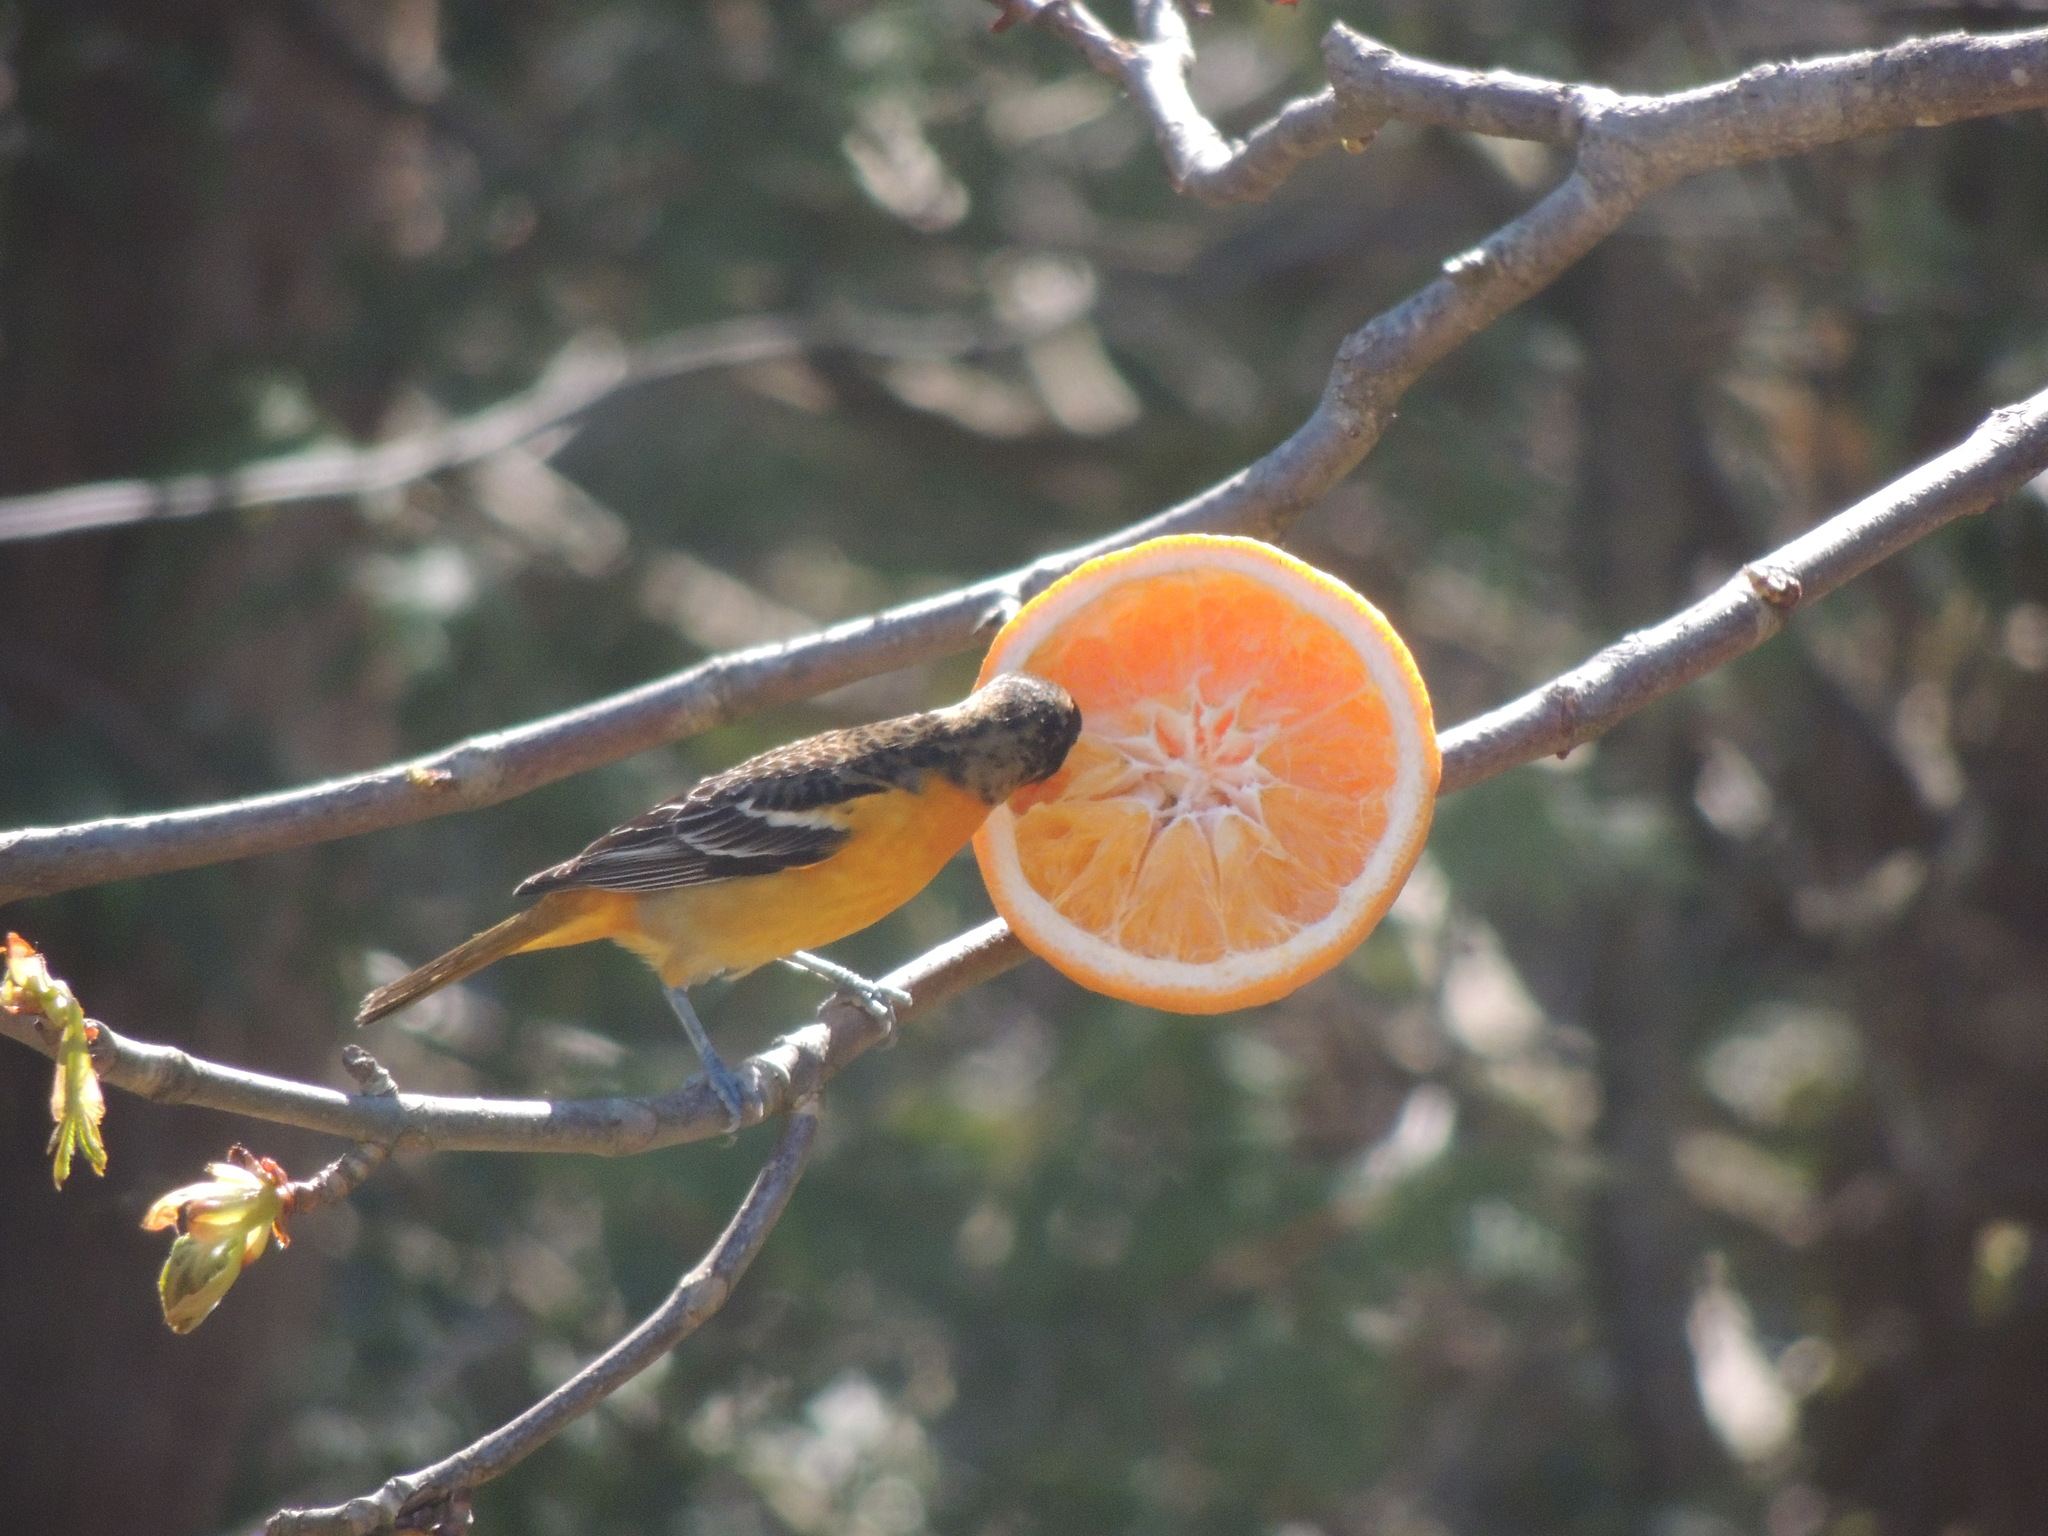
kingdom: Animalia
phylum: Chordata
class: Aves
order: Passeriformes
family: Icteridae
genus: Icterus
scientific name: Icterus galbula
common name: Baltimore oriole
